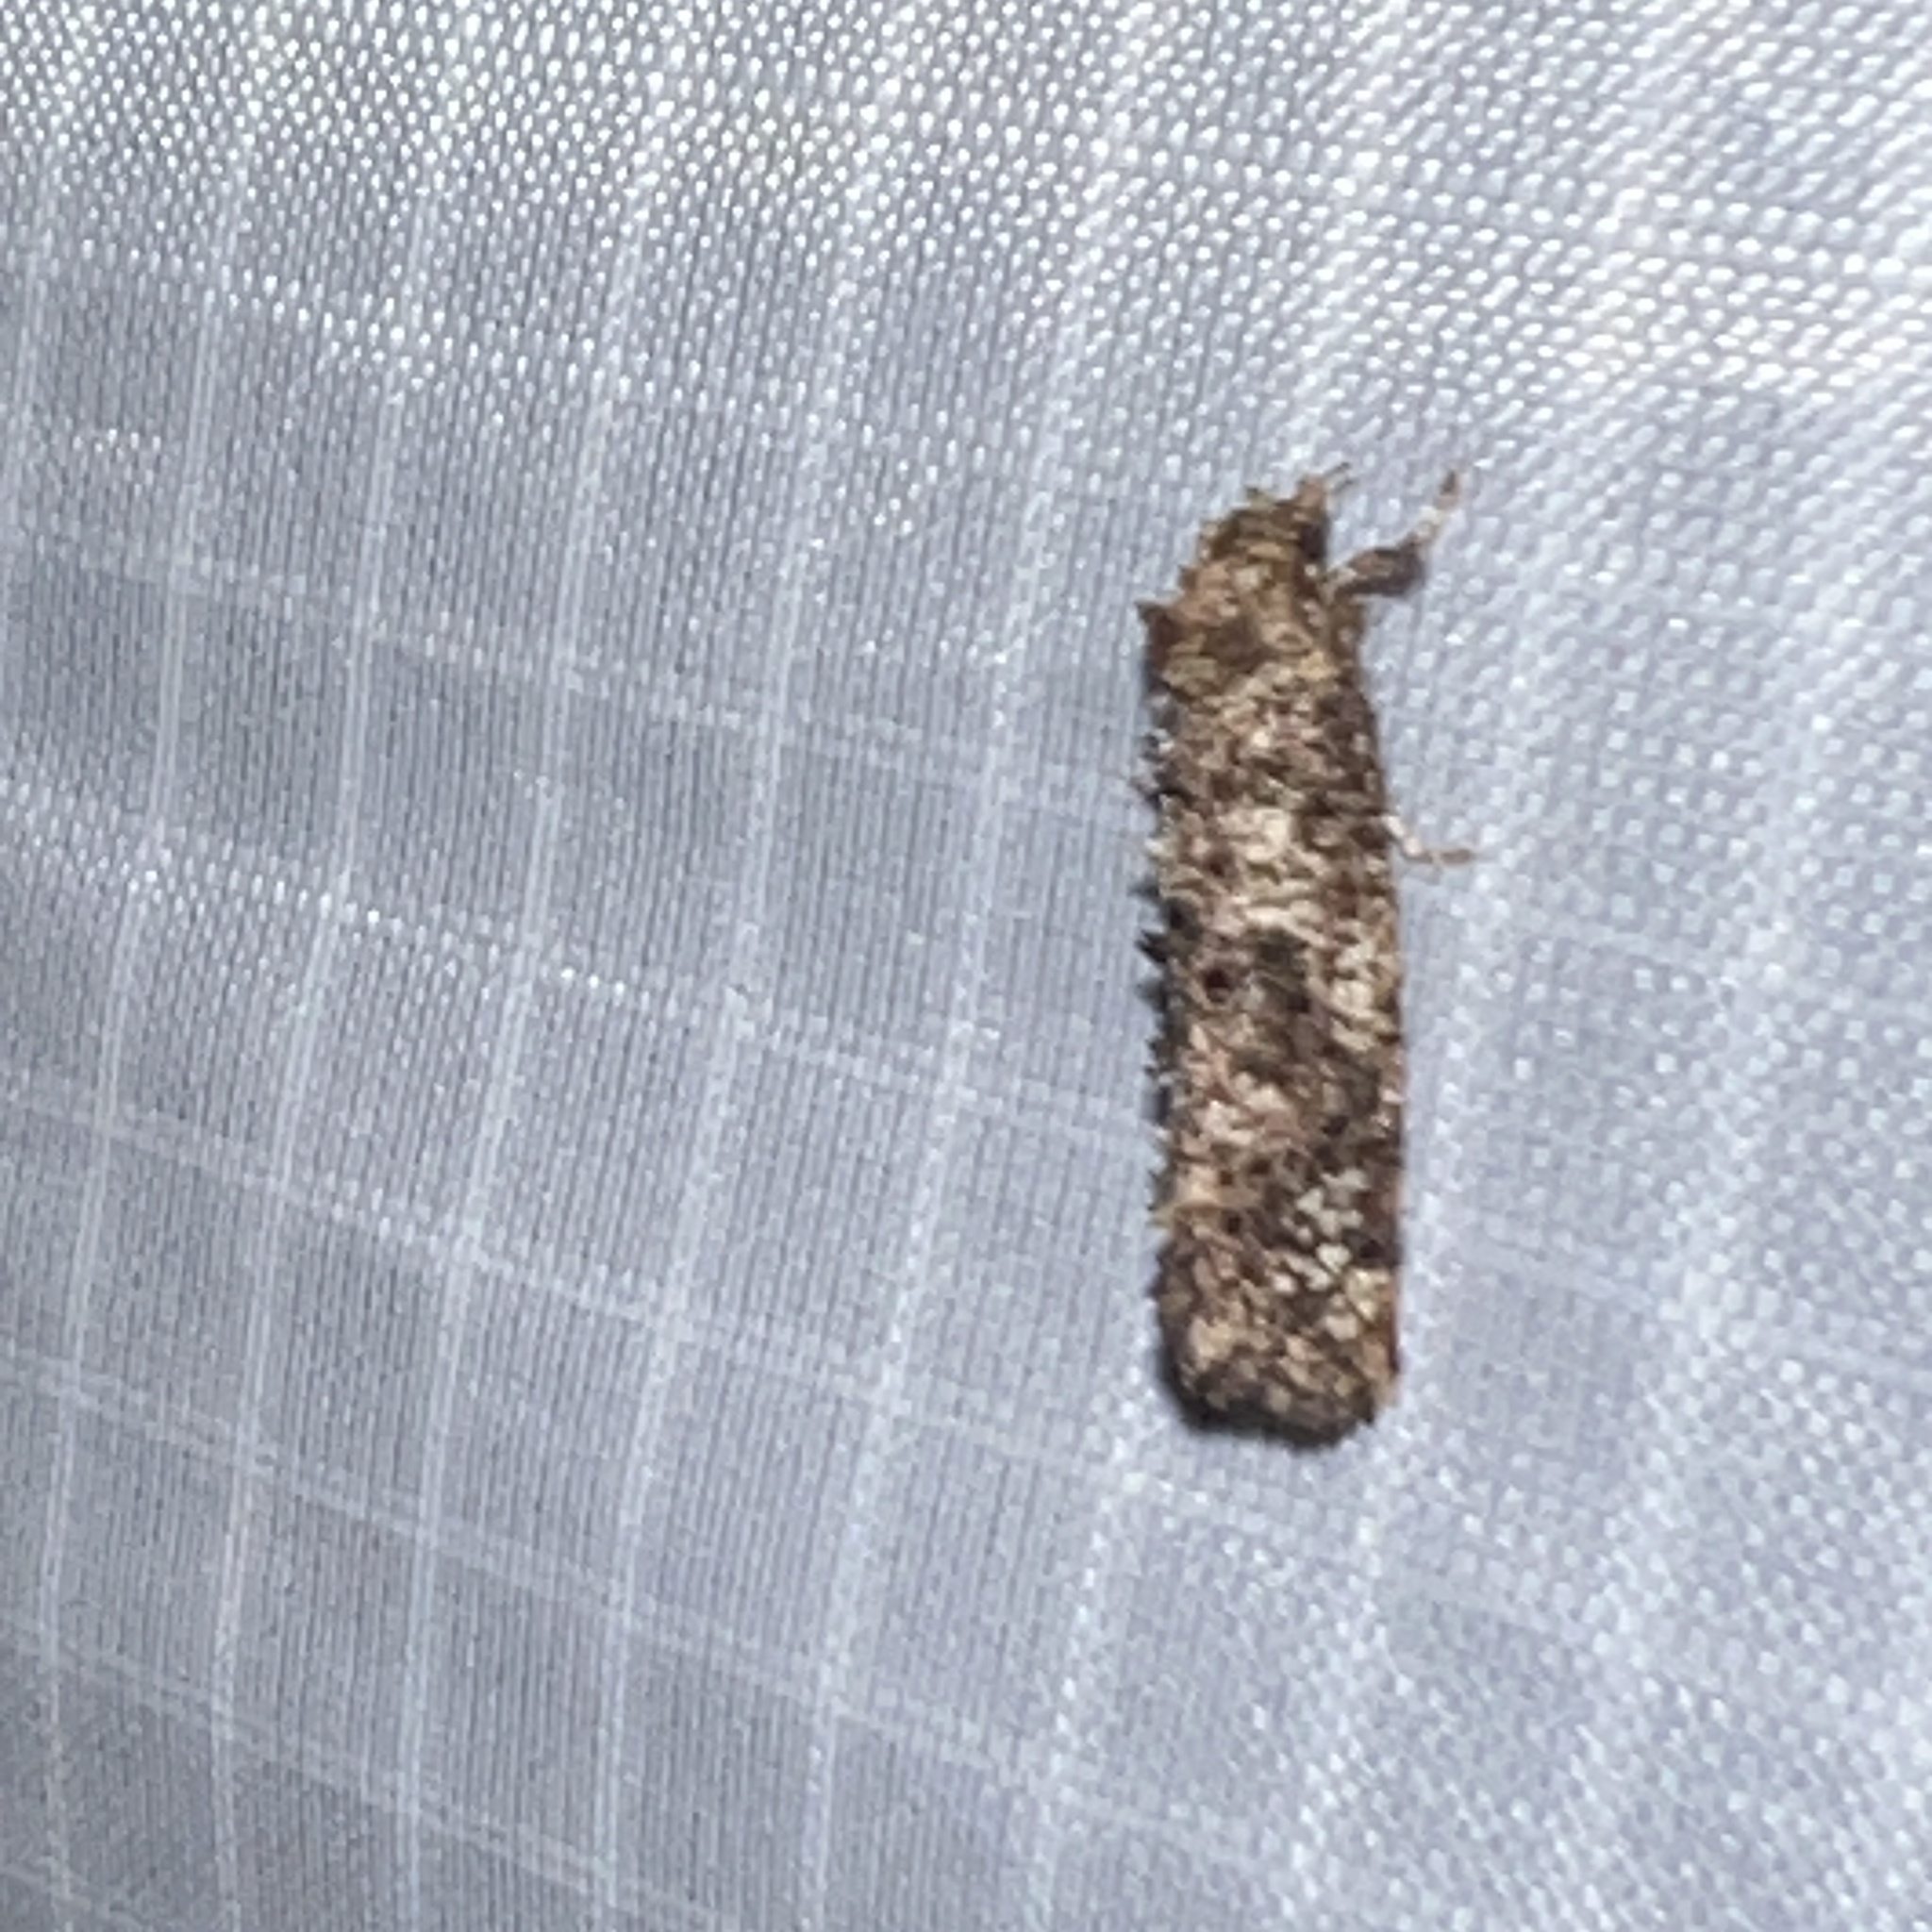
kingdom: Animalia
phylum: Arthropoda
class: Insecta
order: Lepidoptera
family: Tineidae
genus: Acrolophus
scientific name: Acrolophus cressoni
